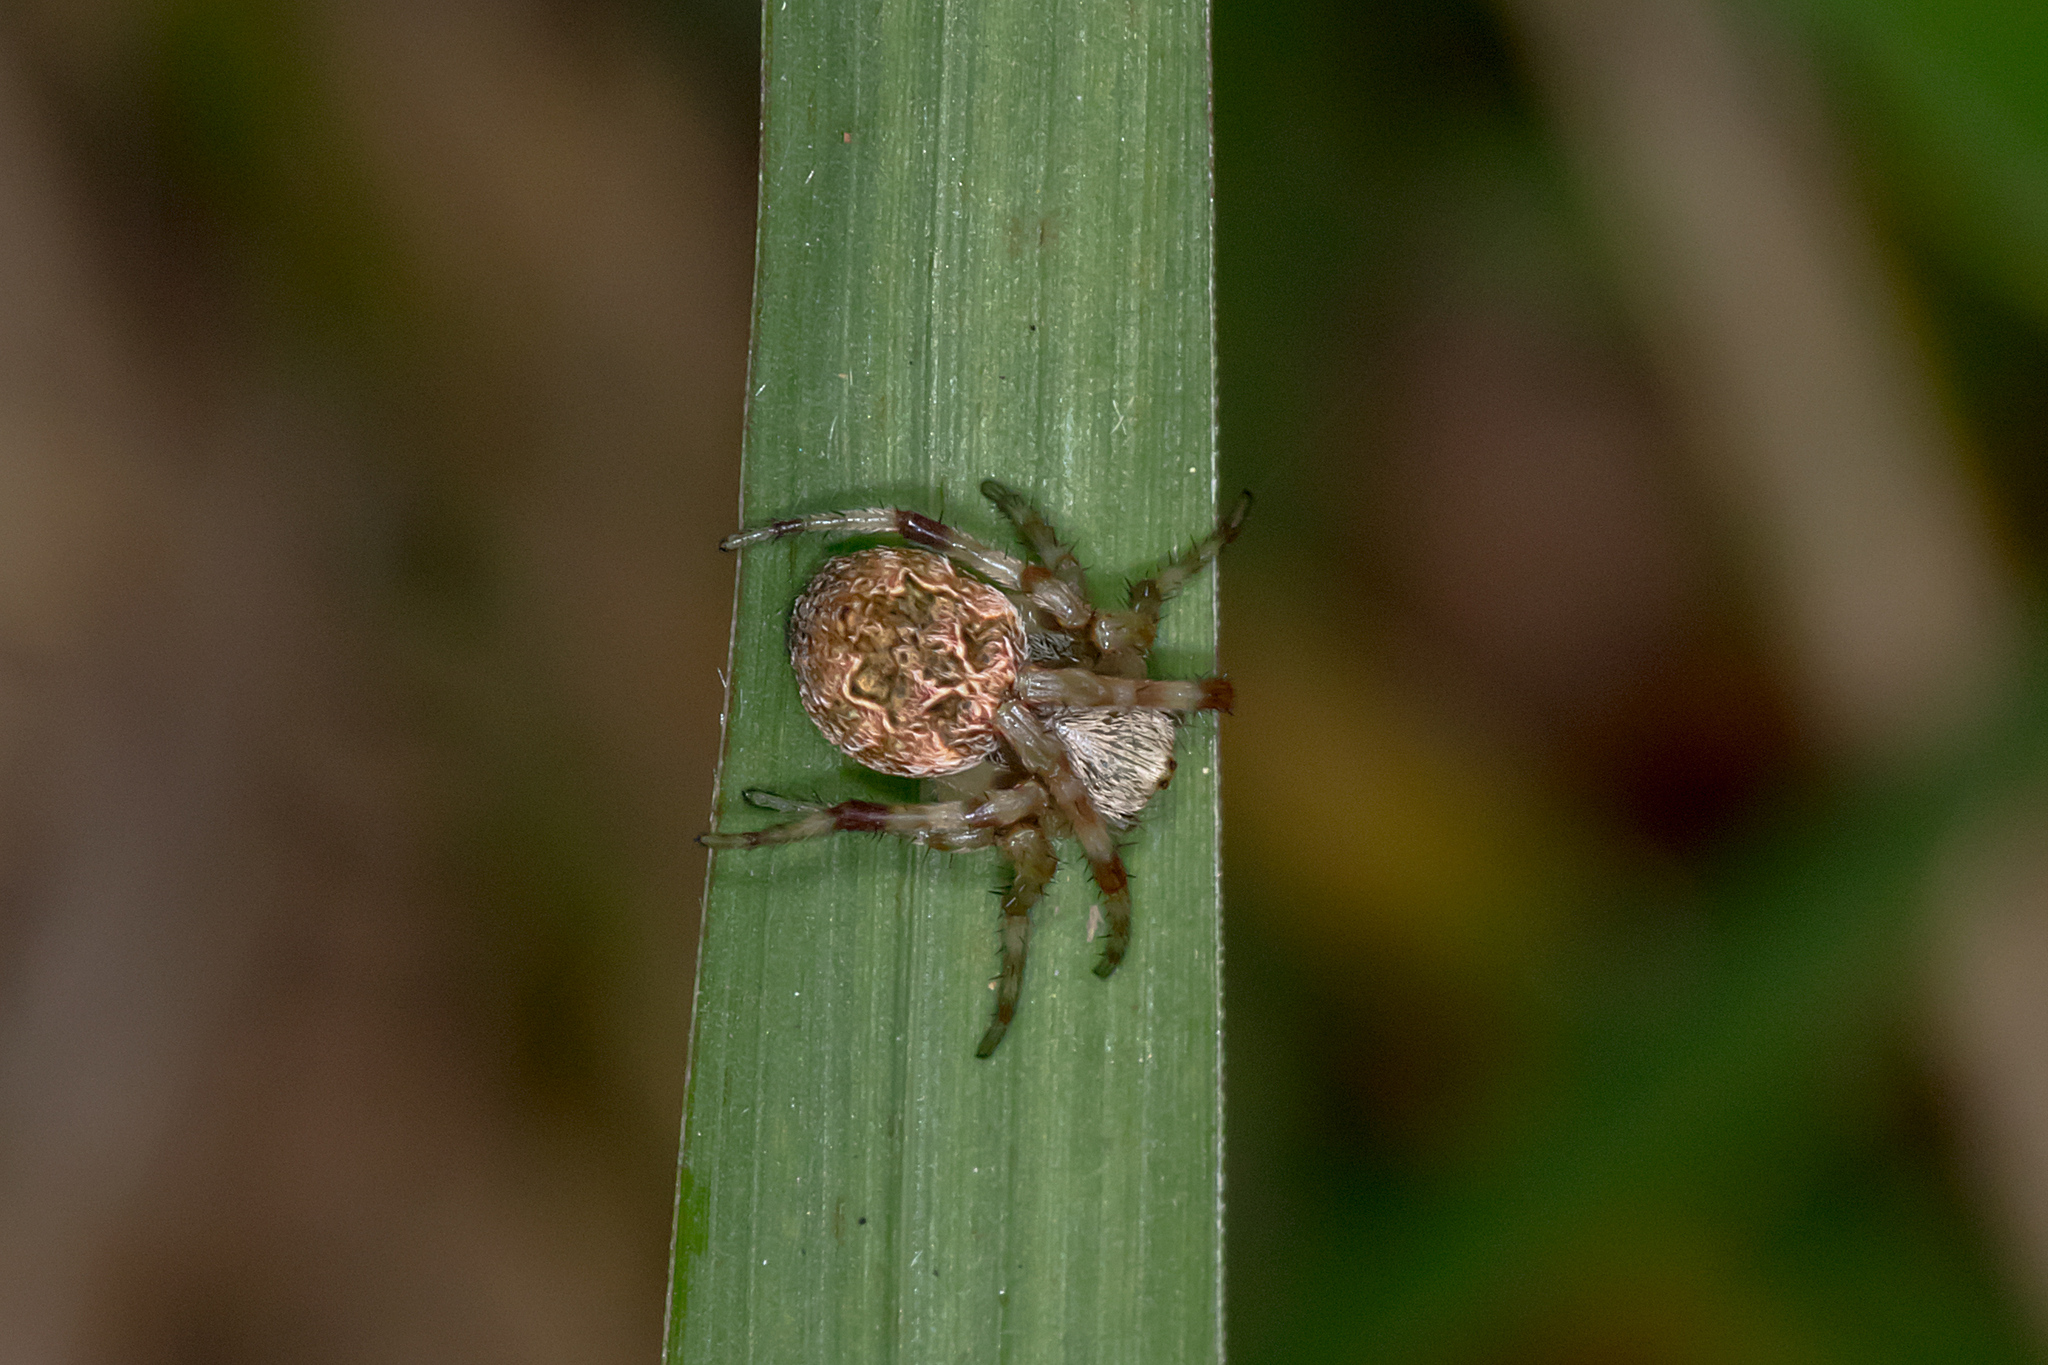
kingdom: Animalia
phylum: Arthropoda
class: Arachnida
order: Araneae
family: Araneidae
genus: Salsa
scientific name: Salsa brisbanae
